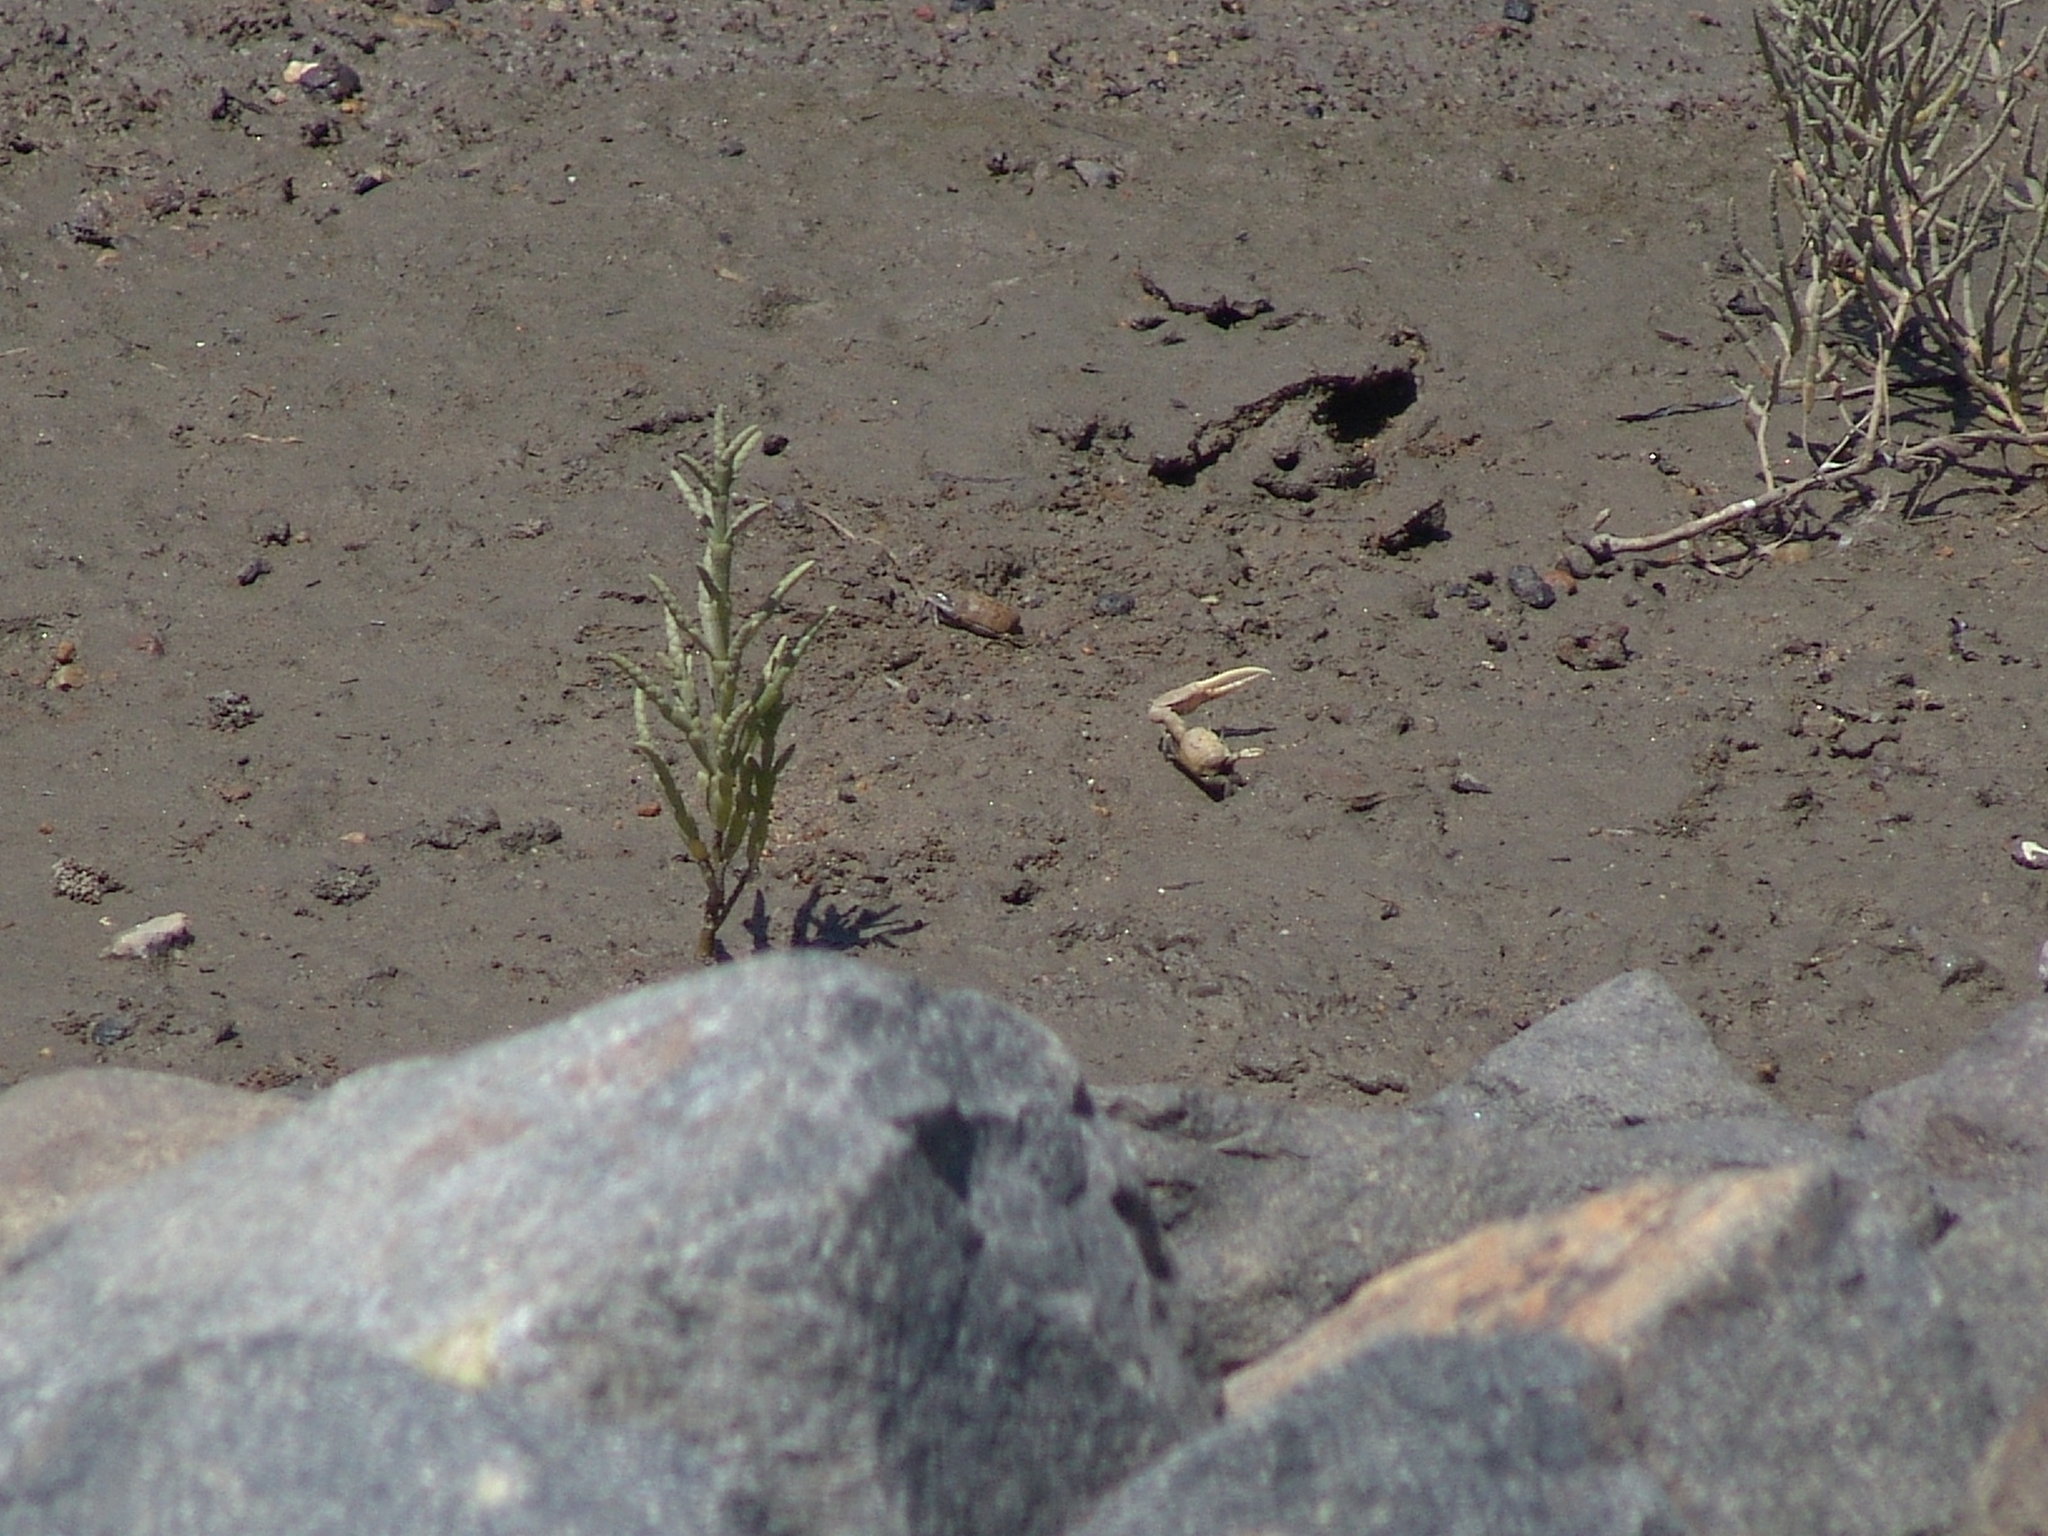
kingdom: Animalia
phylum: Arthropoda
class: Malacostraca
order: Decapoda
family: Ocypodidae
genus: Leptuca
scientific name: Leptuca crenulata
